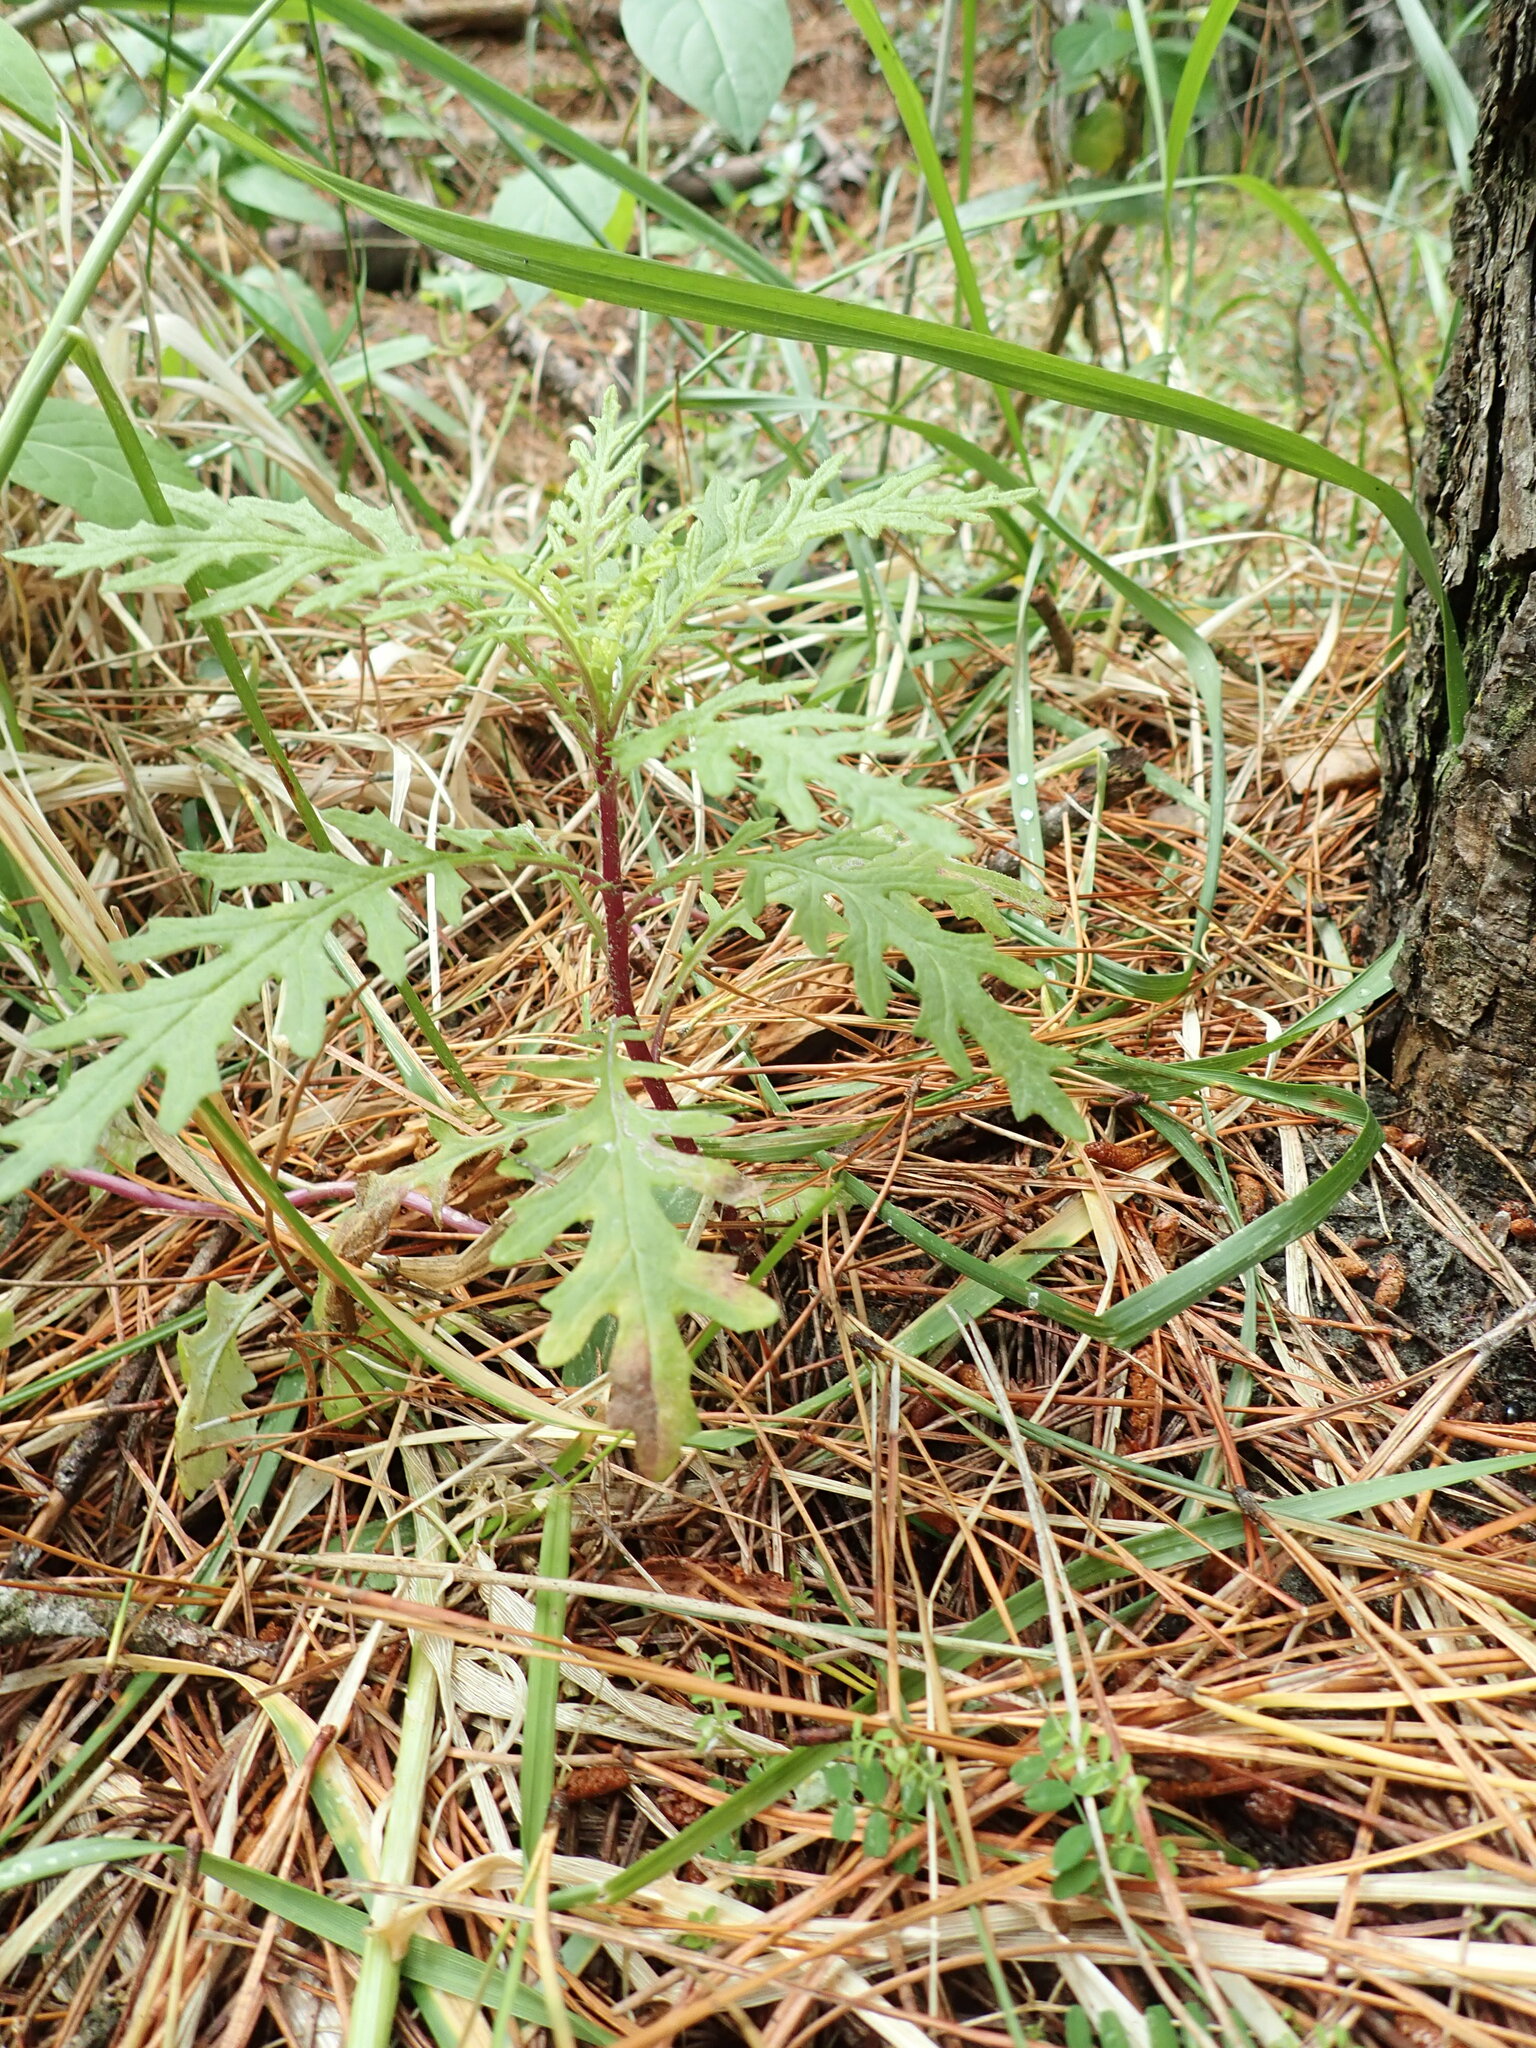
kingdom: Plantae
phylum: Tracheophyta
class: Magnoliopsida
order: Asterales
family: Asteraceae
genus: Senecio
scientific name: Senecio bipinnatisectus
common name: Australian fireweed
